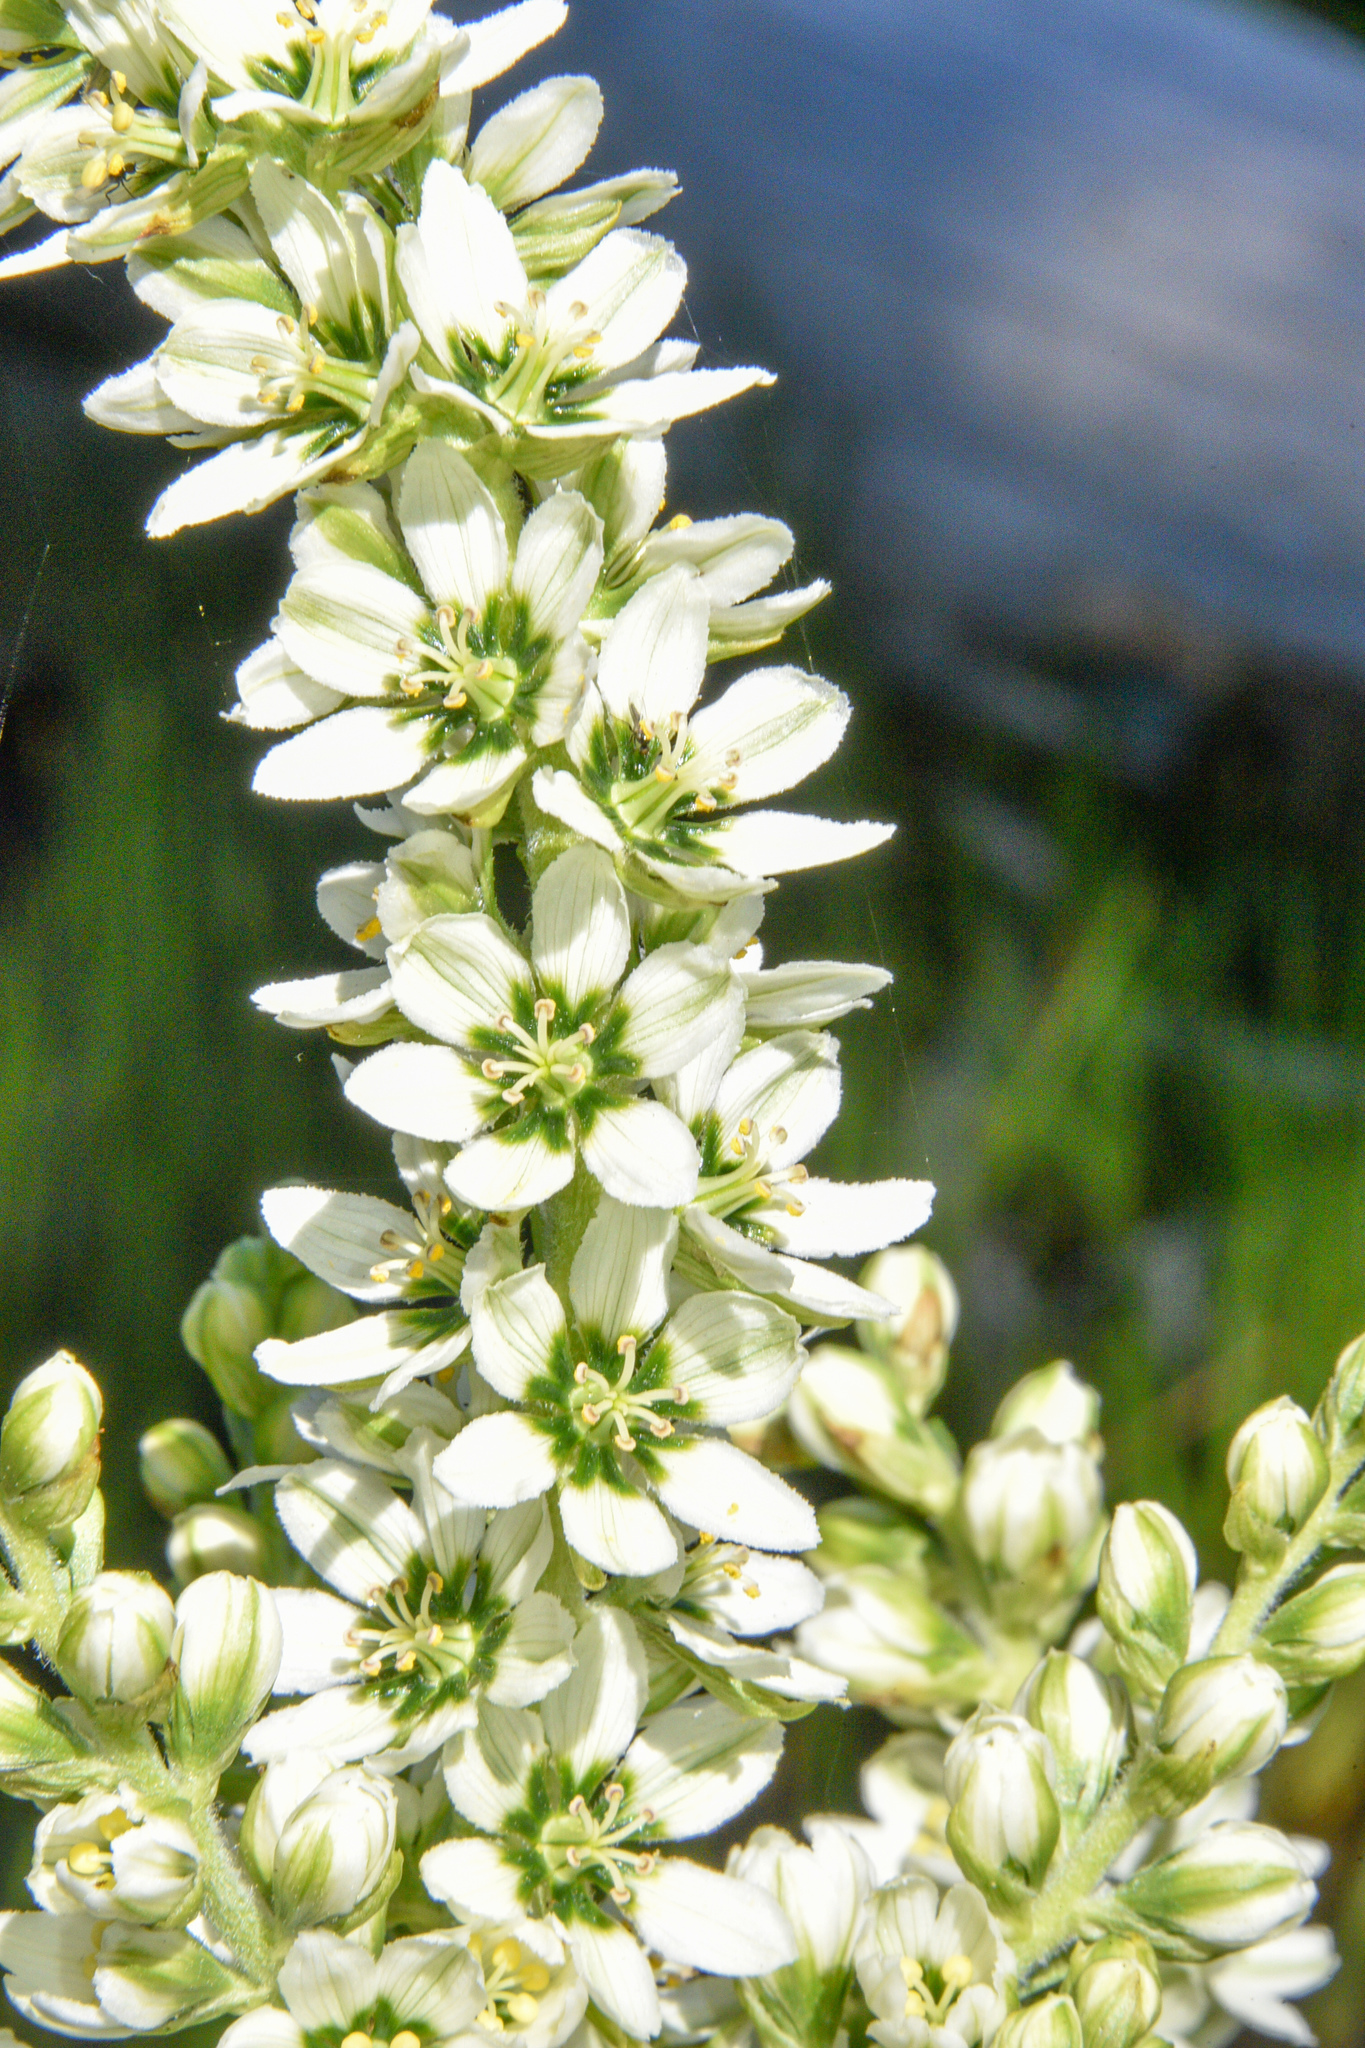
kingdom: Plantae
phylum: Tracheophyta
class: Liliopsida
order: Liliales
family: Melanthiaceae
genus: Veratrum
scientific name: Veratrum californicum
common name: California veratrum
